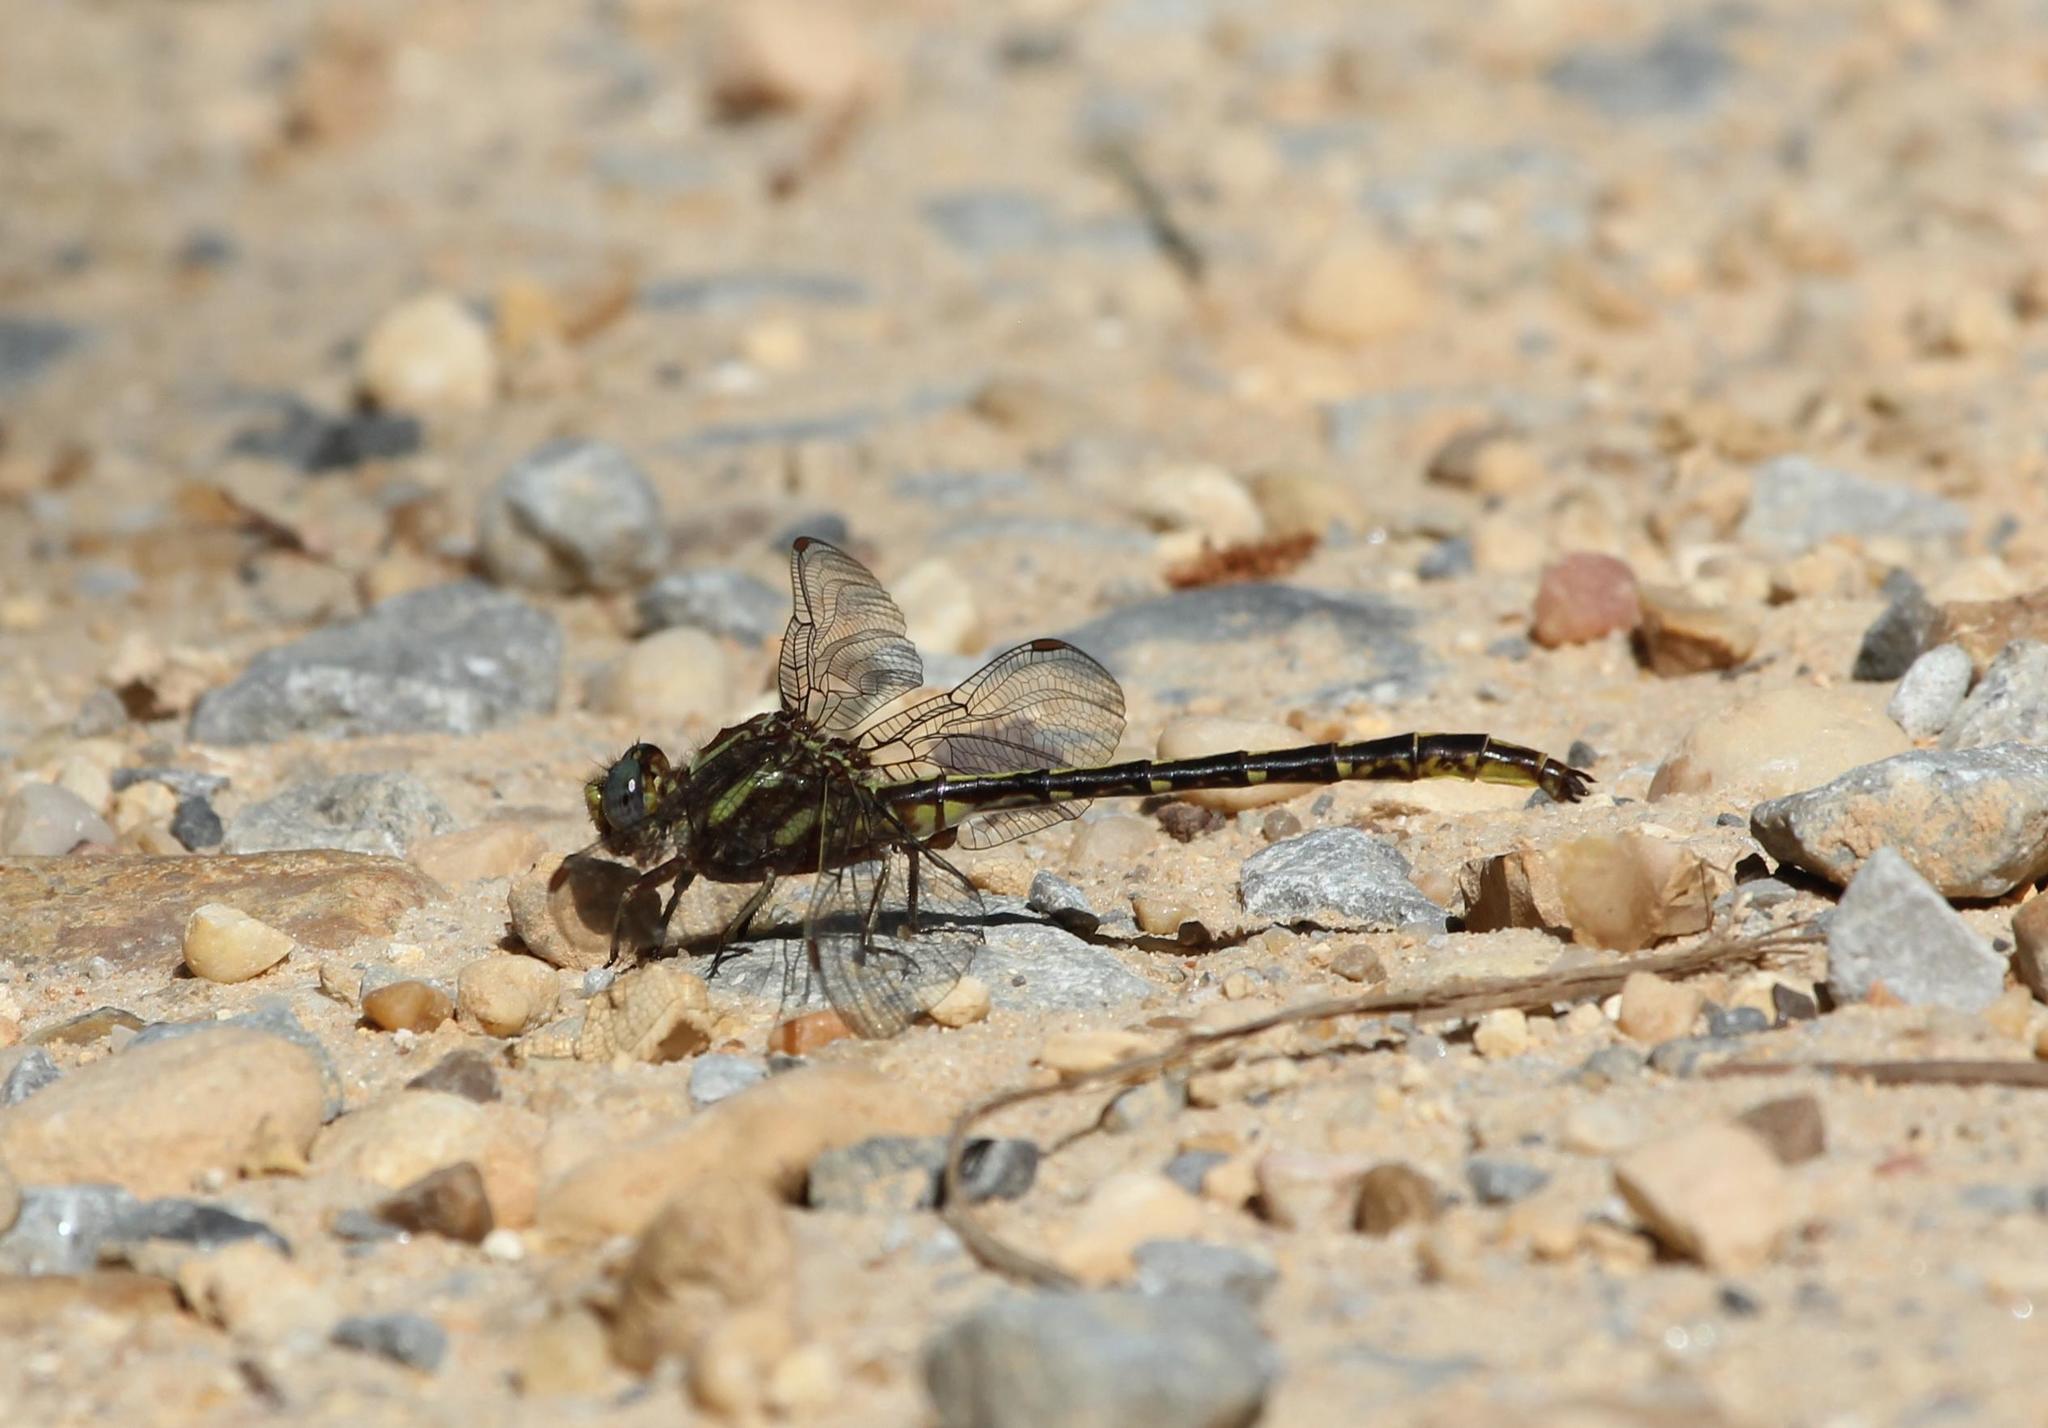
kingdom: Animalia
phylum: Arthropoda
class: Insecta
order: Odonata
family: Gomphidae
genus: Phanogomphus
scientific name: Phanogomphus lividus
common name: Ashy clubtail
